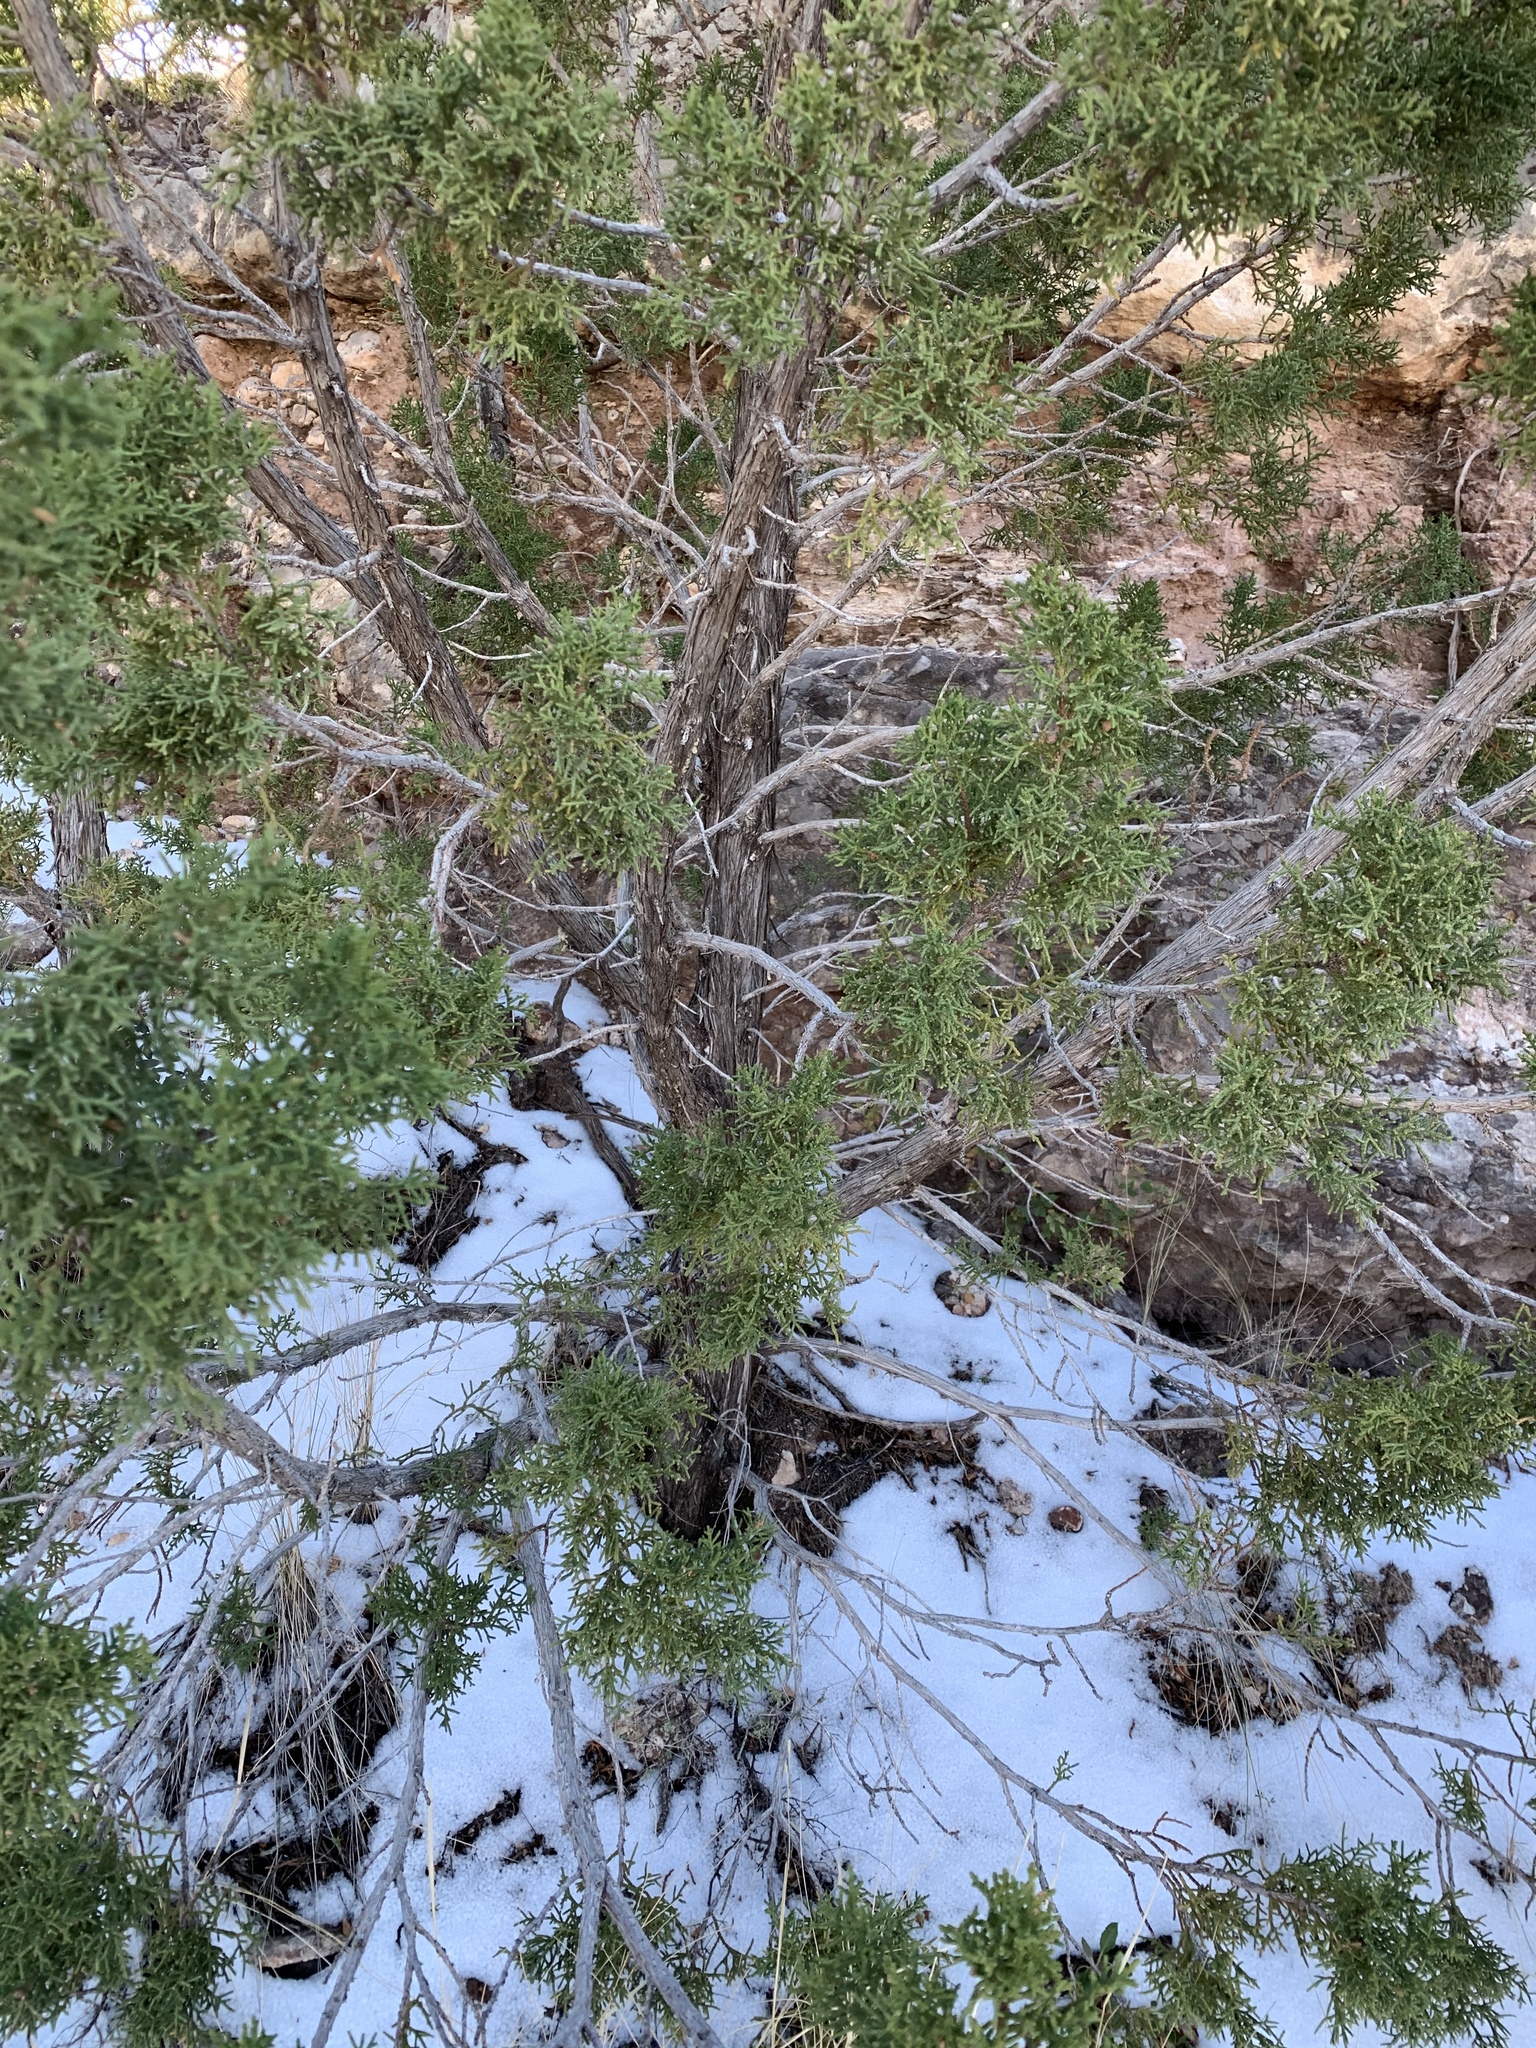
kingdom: Plantae
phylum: Tracheophyta
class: Pinopsida
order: Pinales
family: Cupressaceae
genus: Juniperus
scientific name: Juniperus monosperma
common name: One-seed juniper
